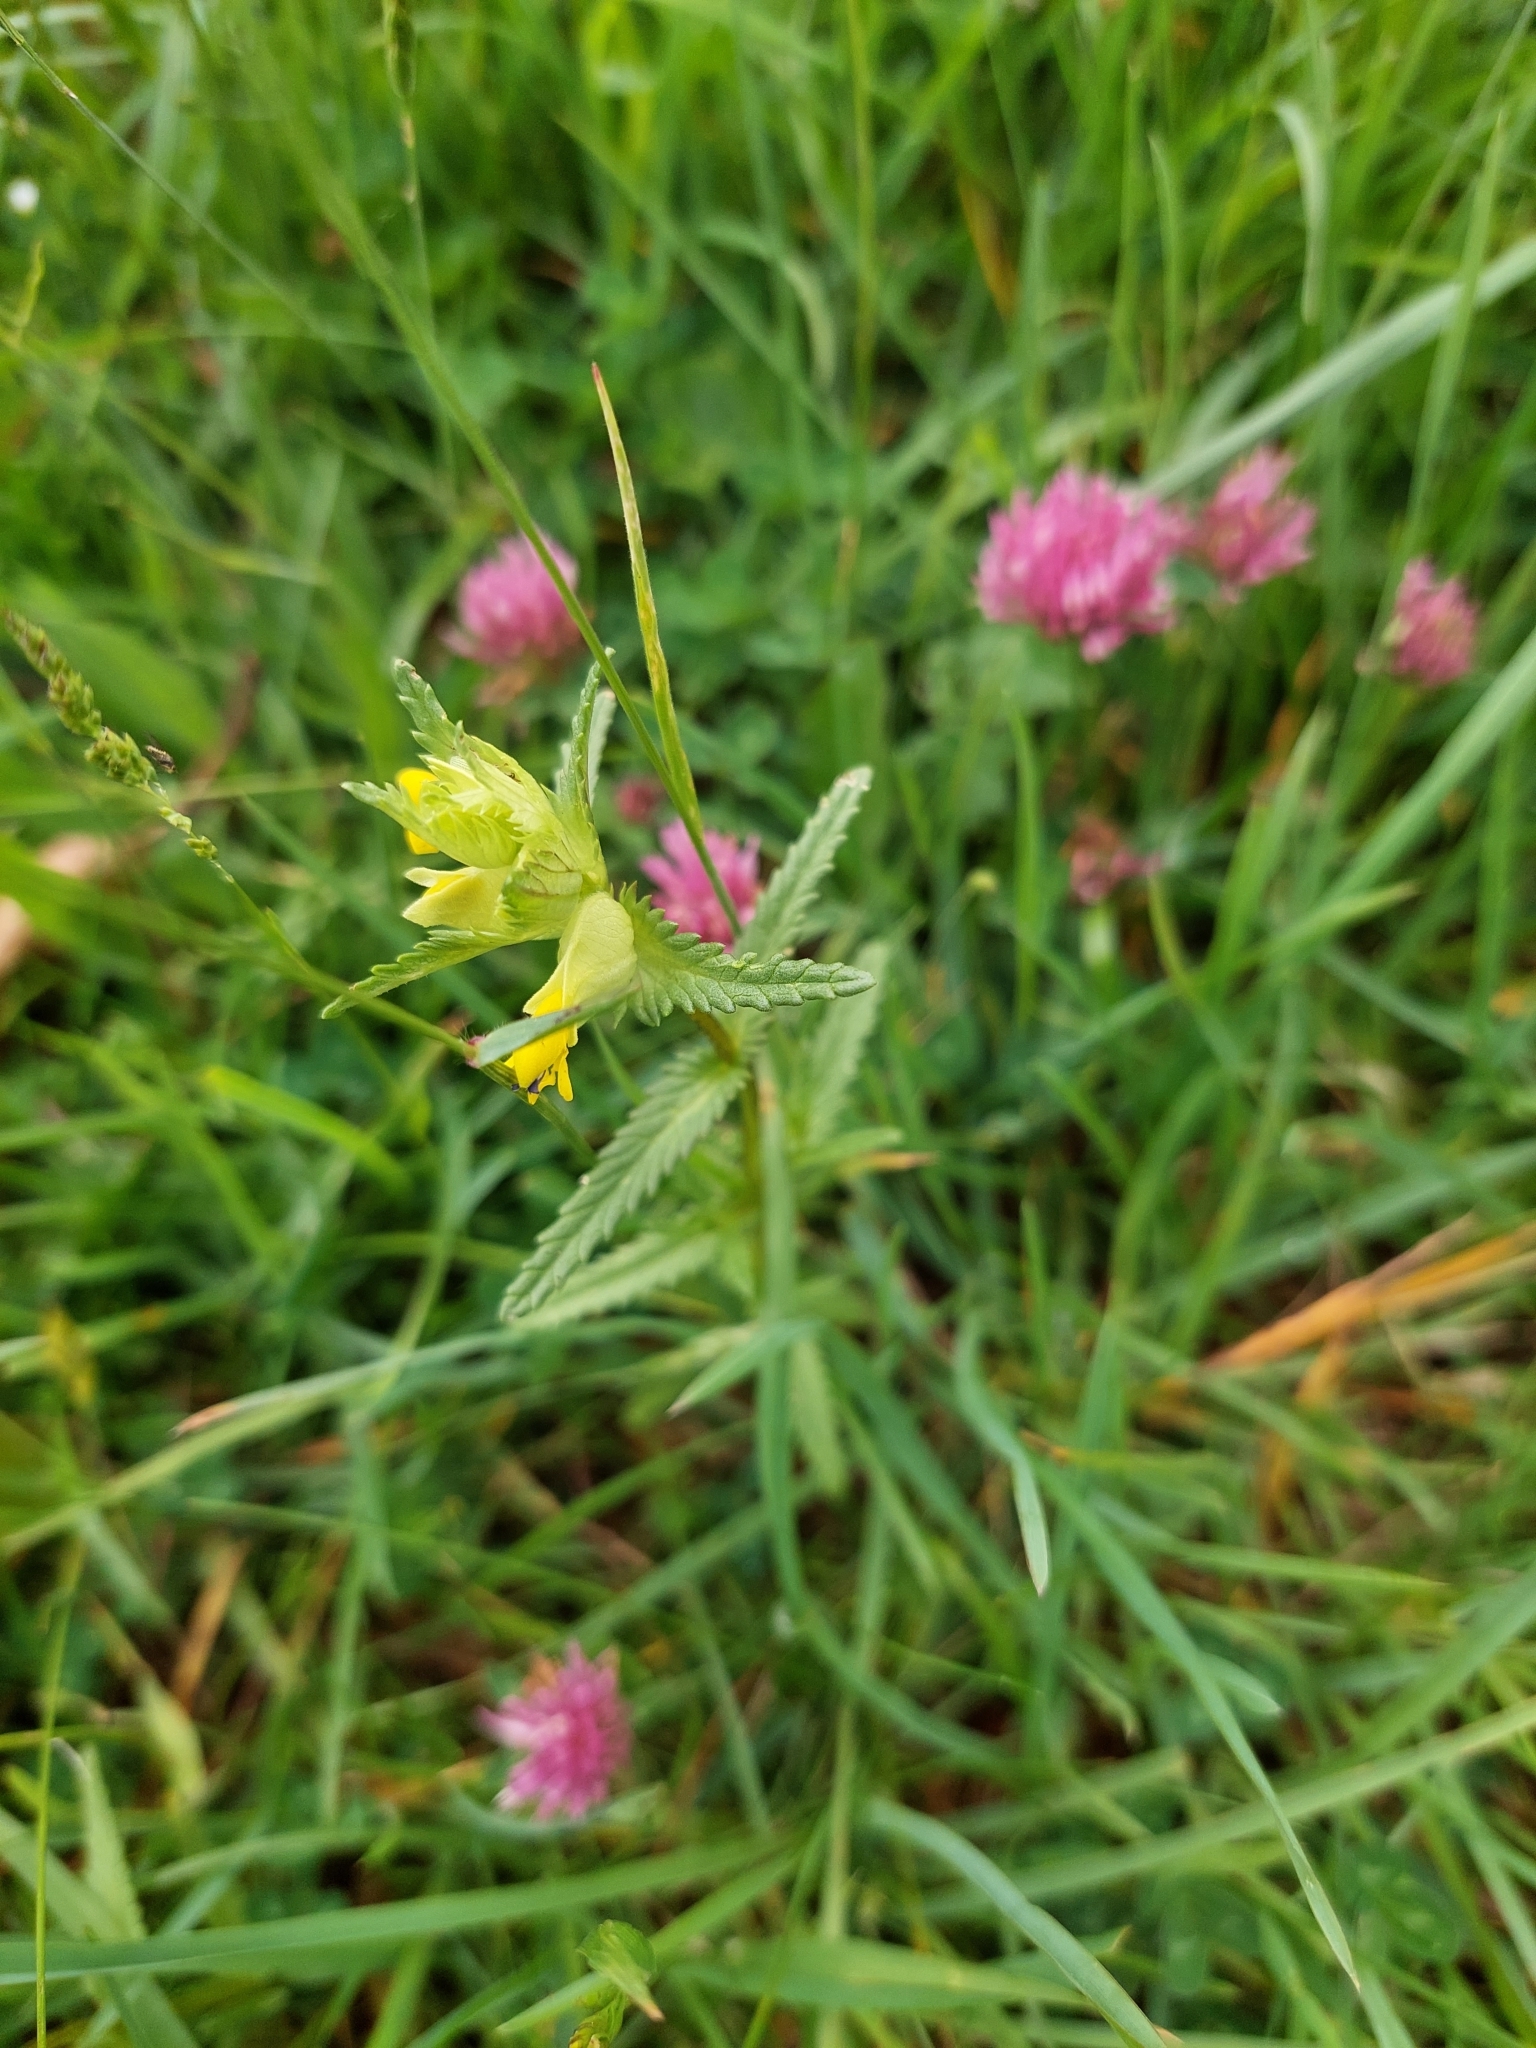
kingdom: Plantae
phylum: Tracheophyta
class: Magnoliopsida
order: Lamiales
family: Orobanchaceae
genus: Rhinanthus
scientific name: Rhinanthus minor
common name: Yellow-rattle
